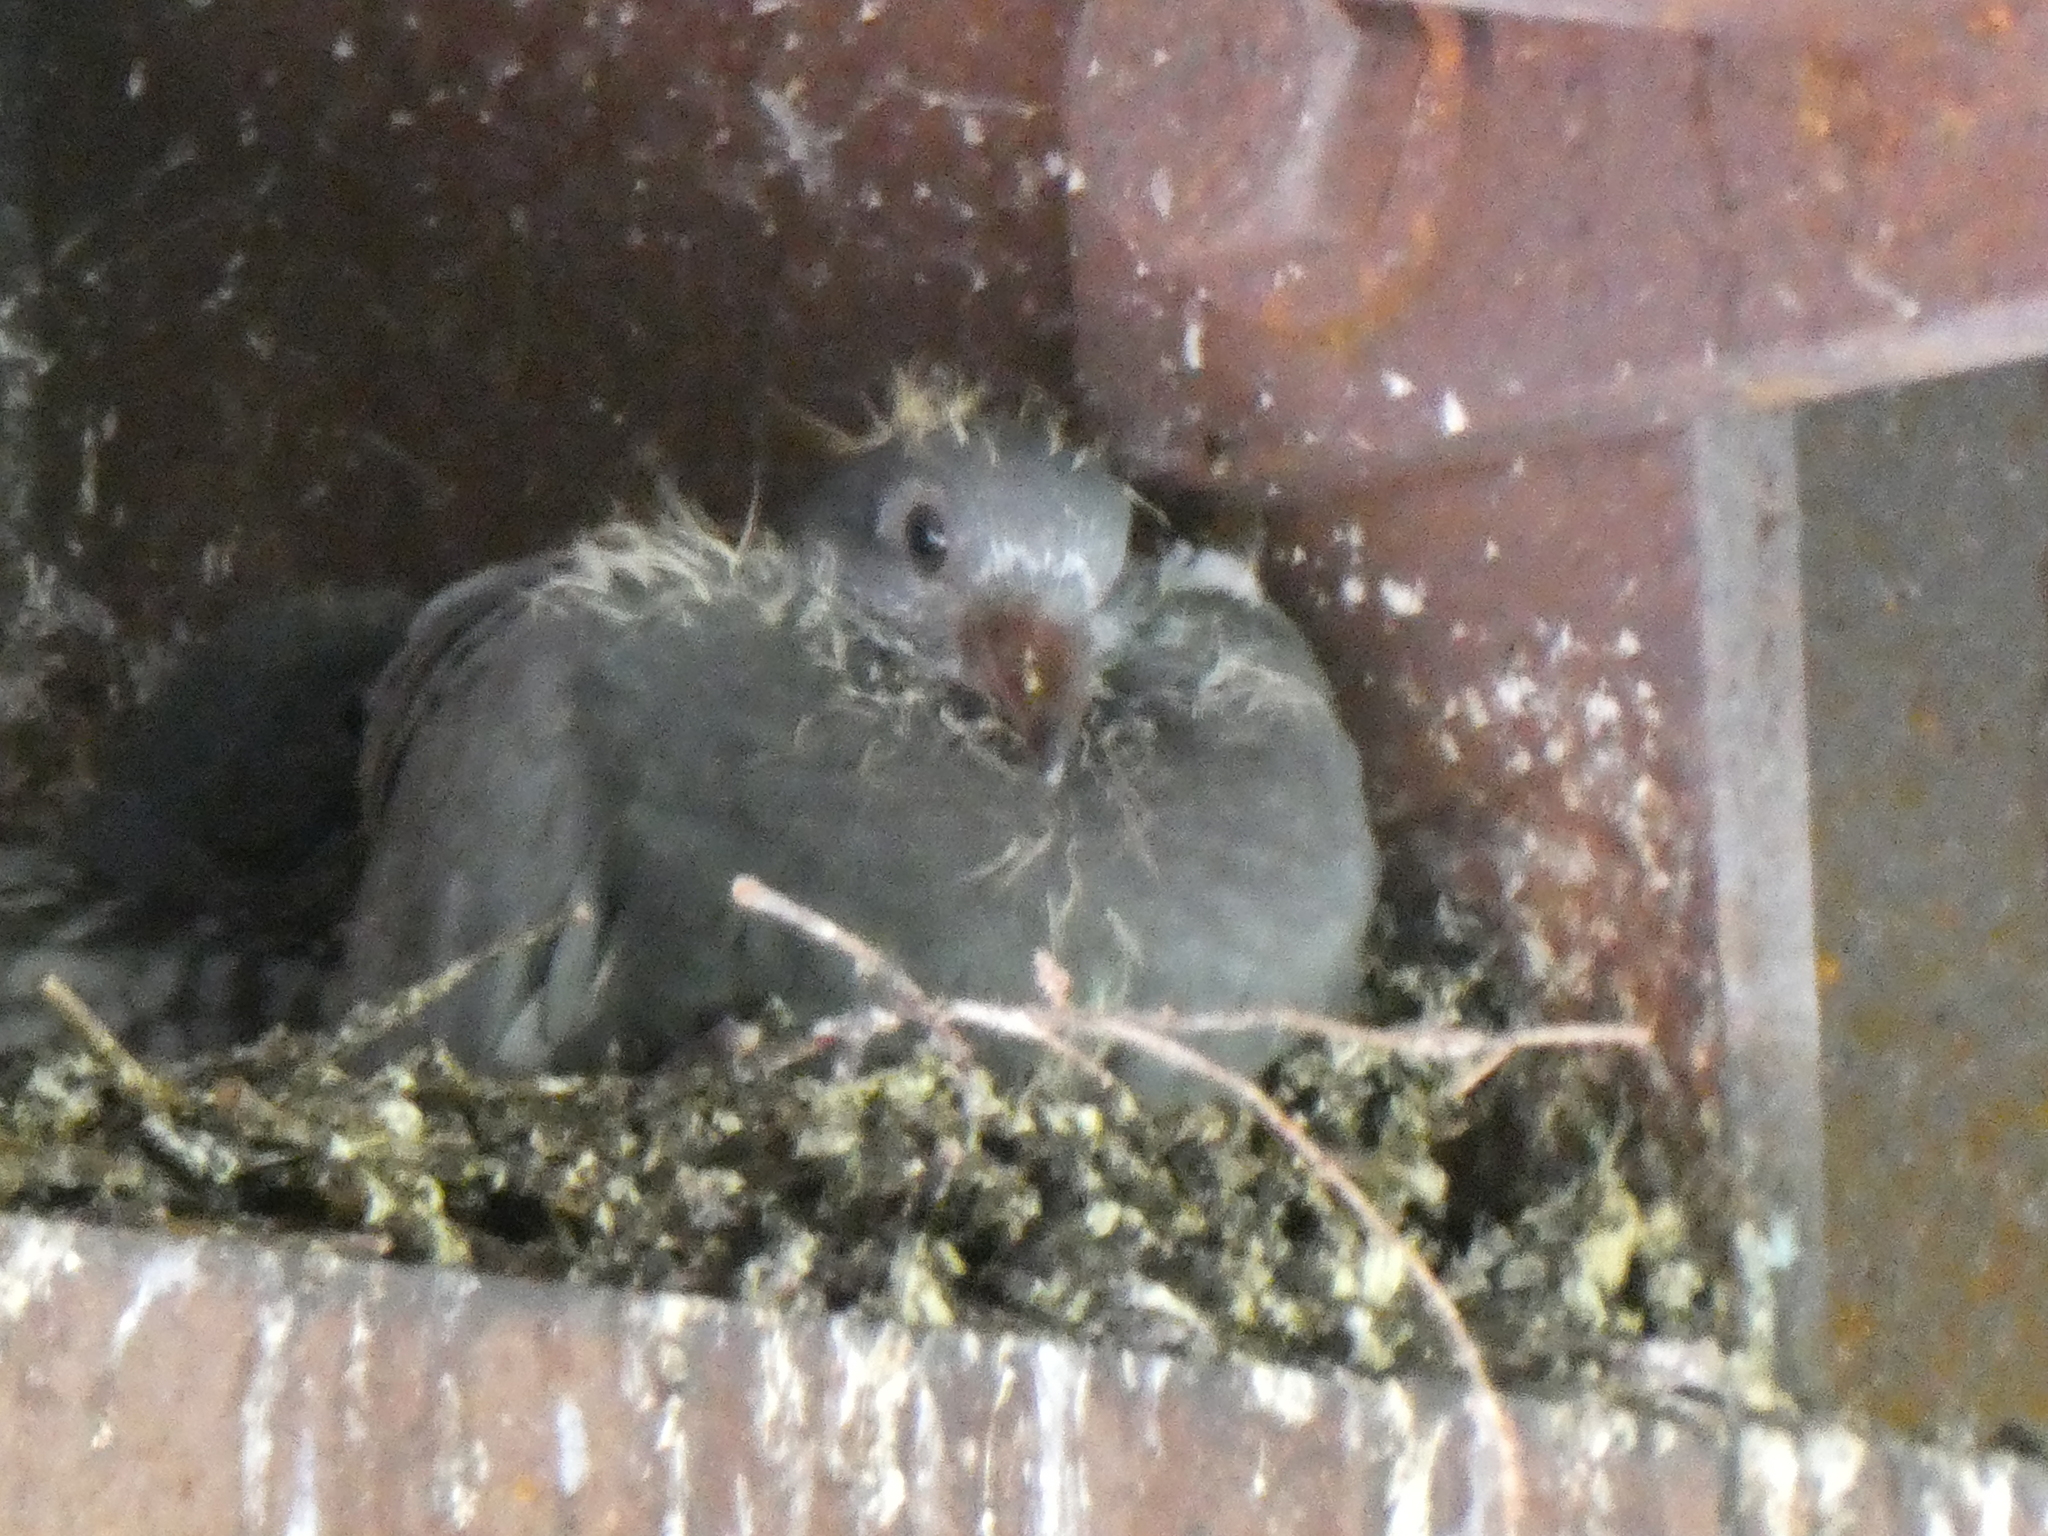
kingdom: Animalia
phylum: Chordata
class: Aves
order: Columbiformes
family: Columbidae
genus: Columba
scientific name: Columba livia
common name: Rock pigeon
